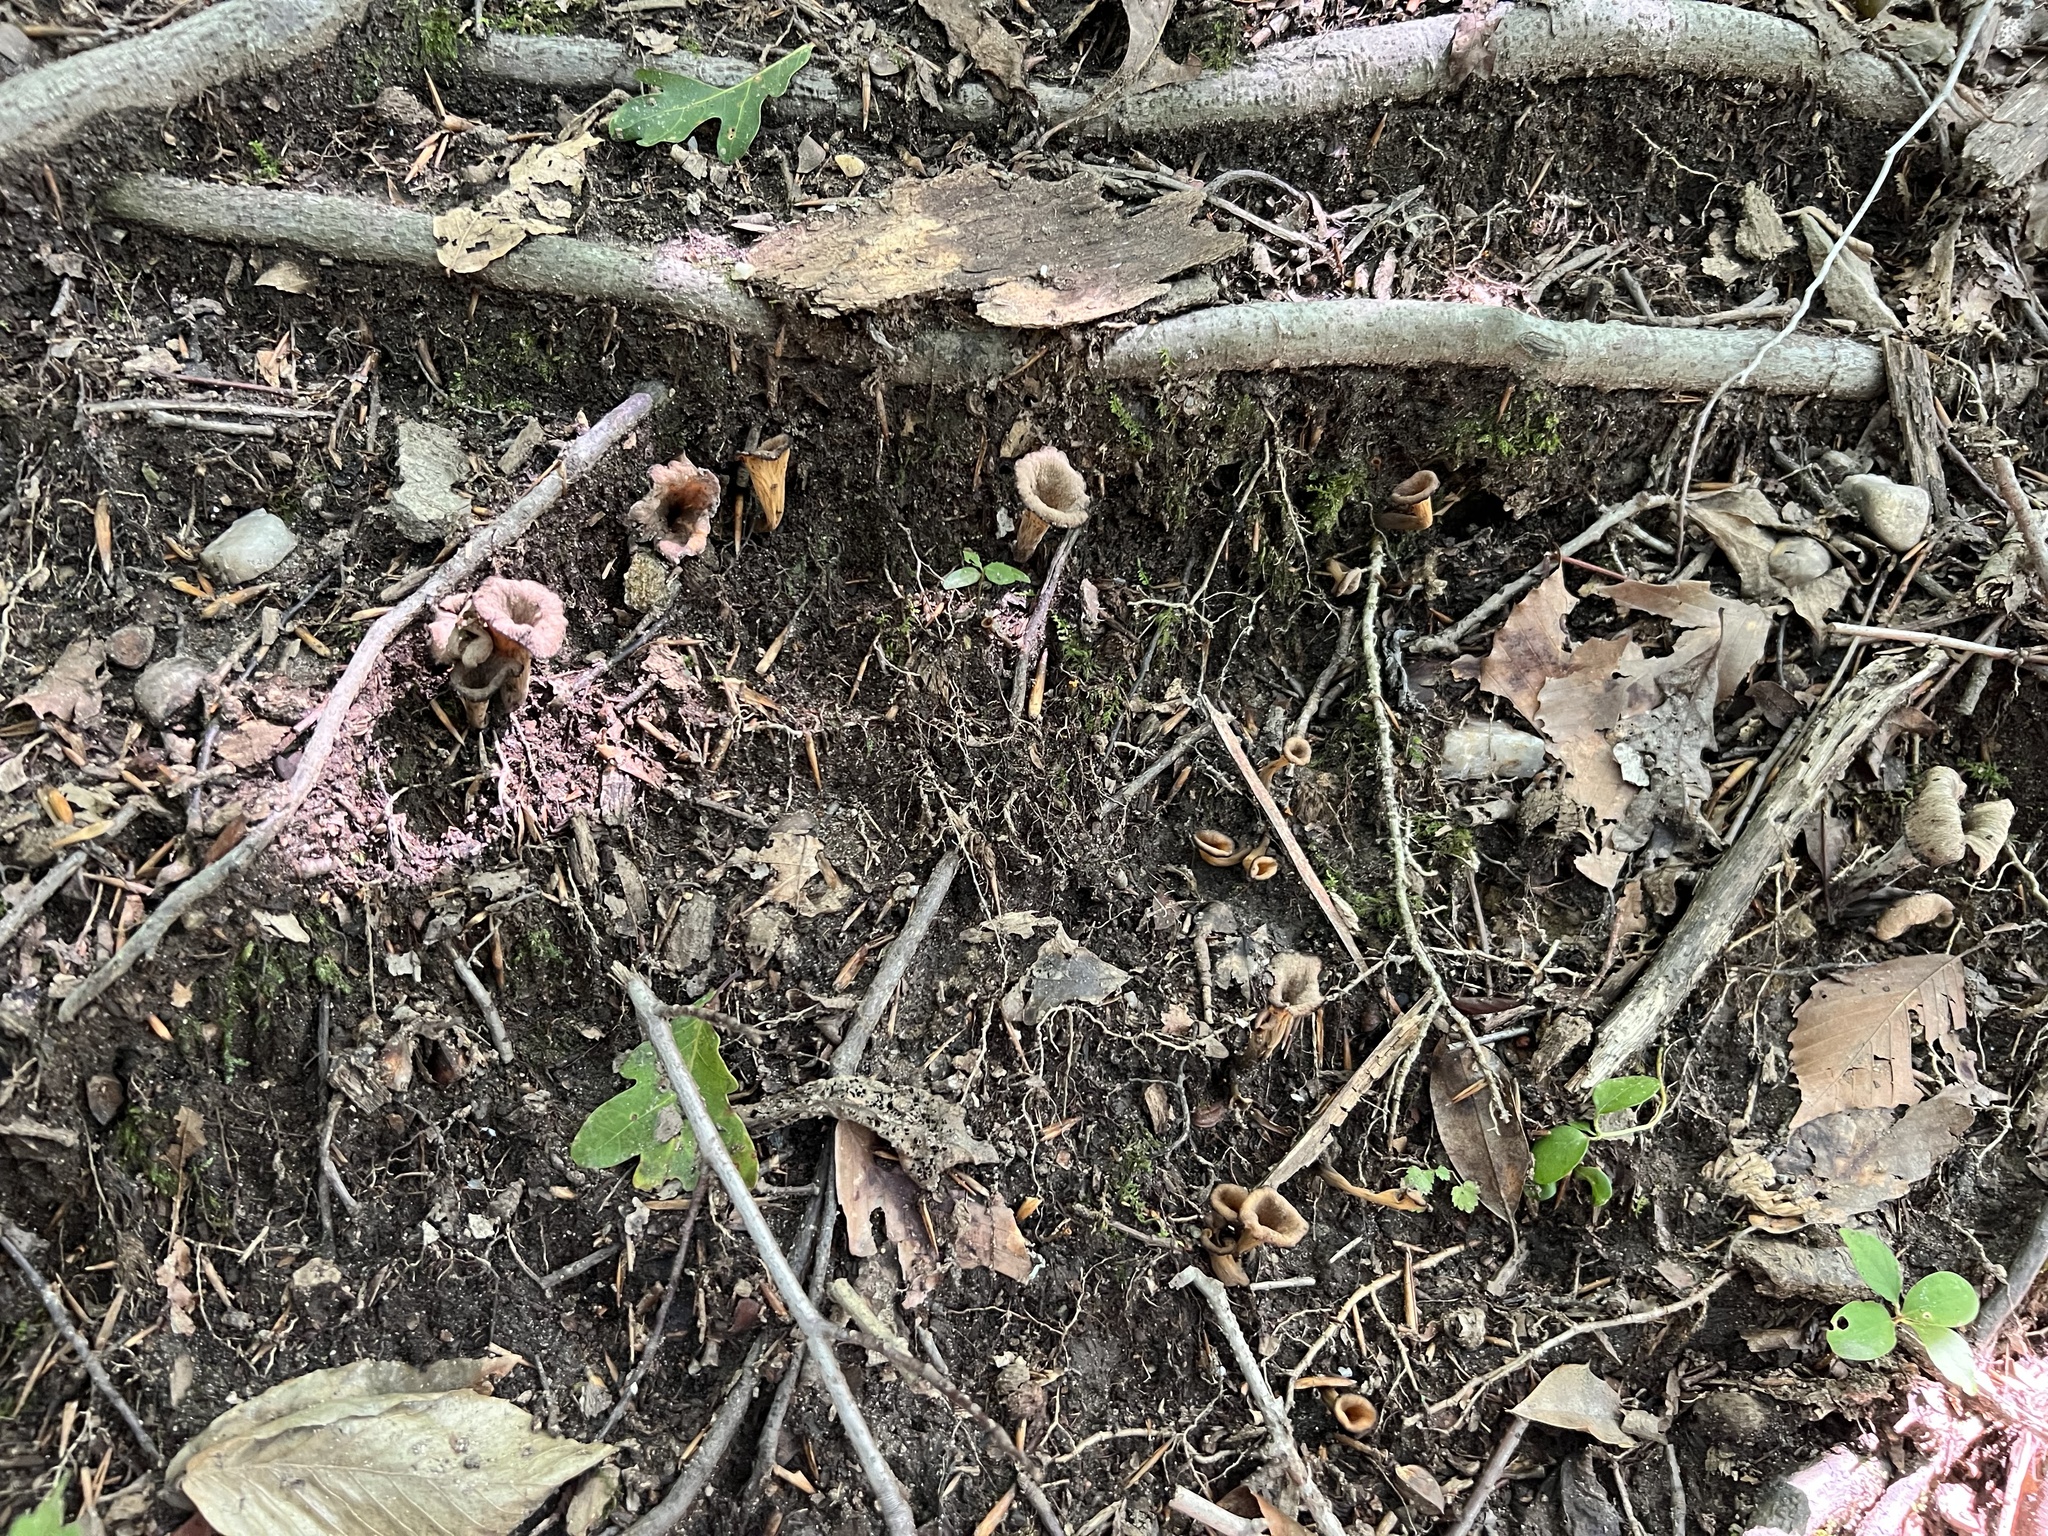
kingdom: Fungi
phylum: Basidiomycota
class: Agaricomycetes
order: Cantharellales
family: Hydnaceae
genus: Craterellus
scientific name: Craterellus cornucopioides
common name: Horn of plenty
